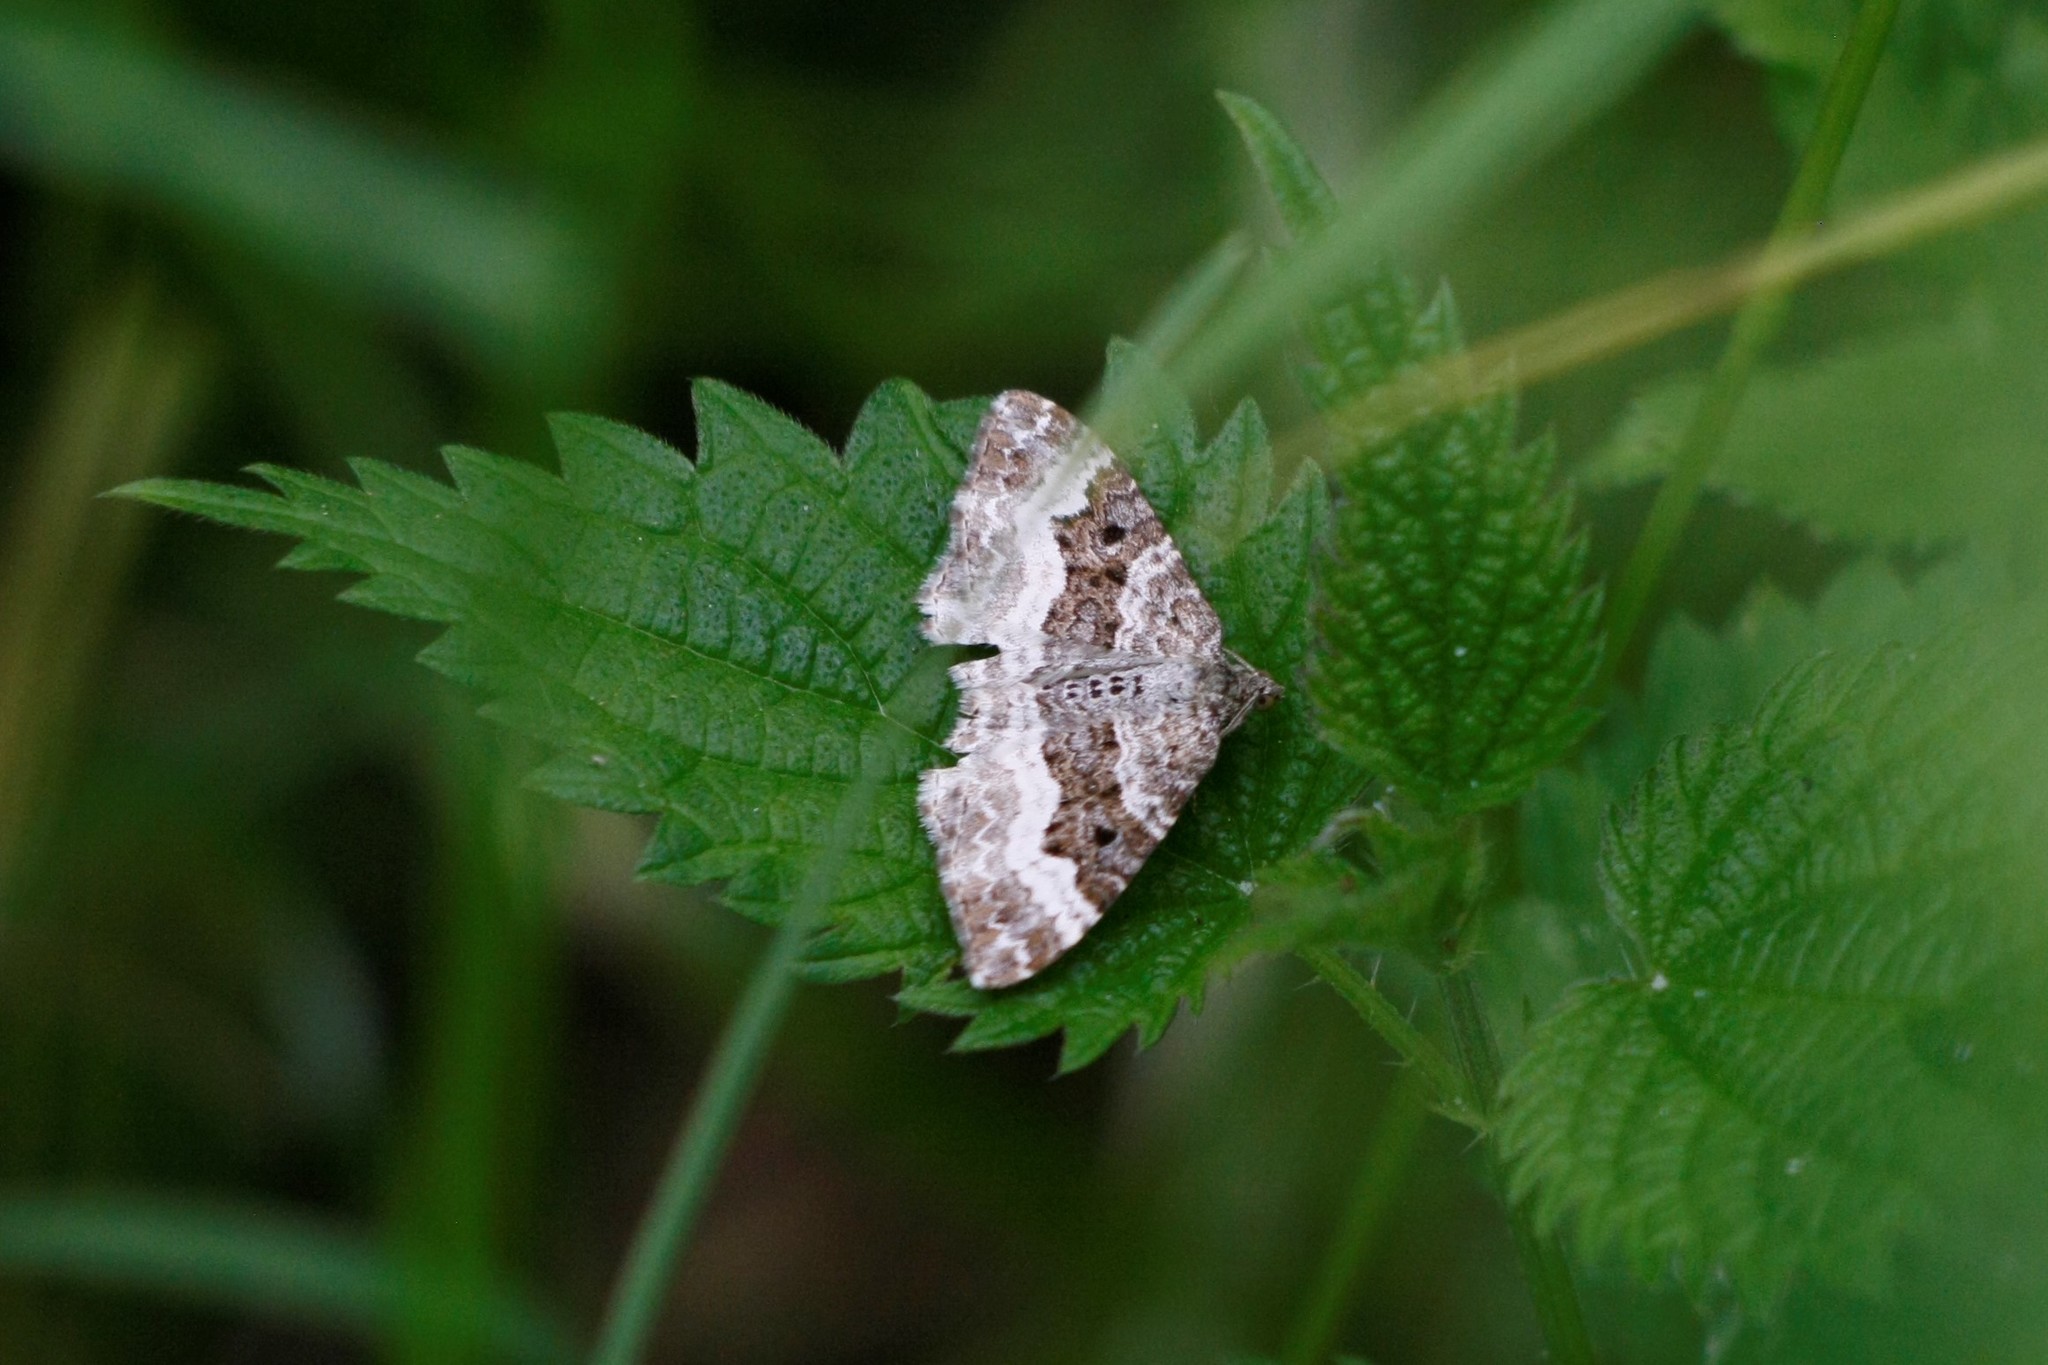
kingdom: Animalia
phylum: Arthropoda
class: Insecta
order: Lepidoptera
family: Geometridae
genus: Epirrhoe
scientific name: Epirrhoe alternata
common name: Common carpet
